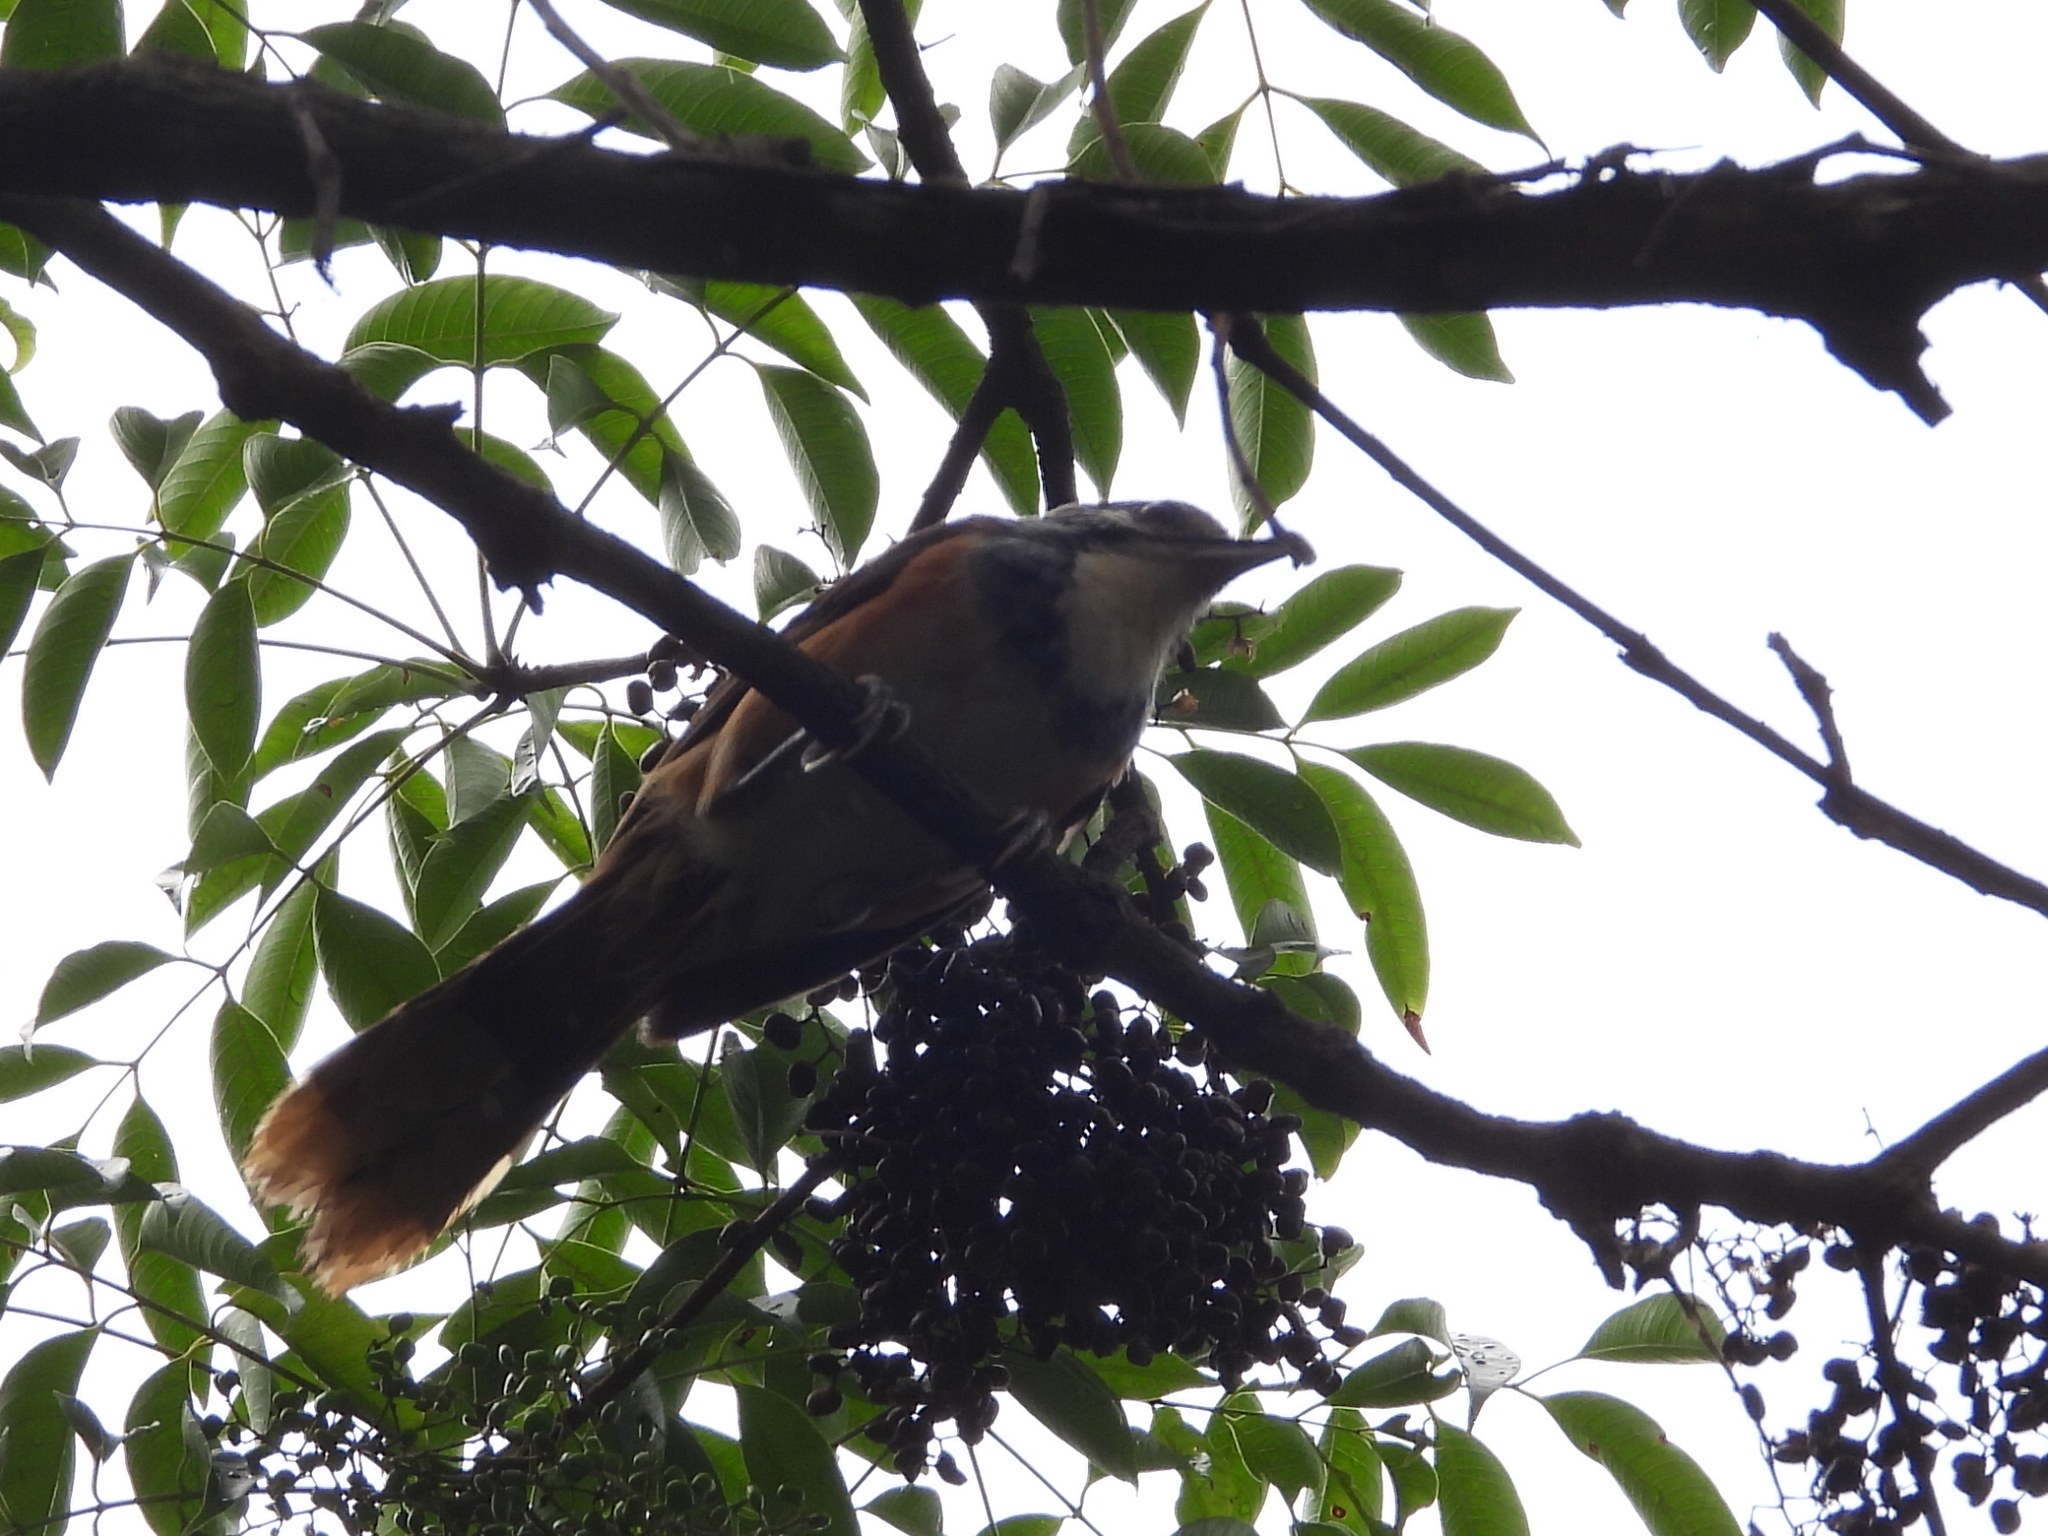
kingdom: Animalia
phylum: Chordata
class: Aves
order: Passeriformes
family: Leiothrichidae
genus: Garrulax
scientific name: Garrulax pectoralis
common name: Greater necklaced laughingthrush
